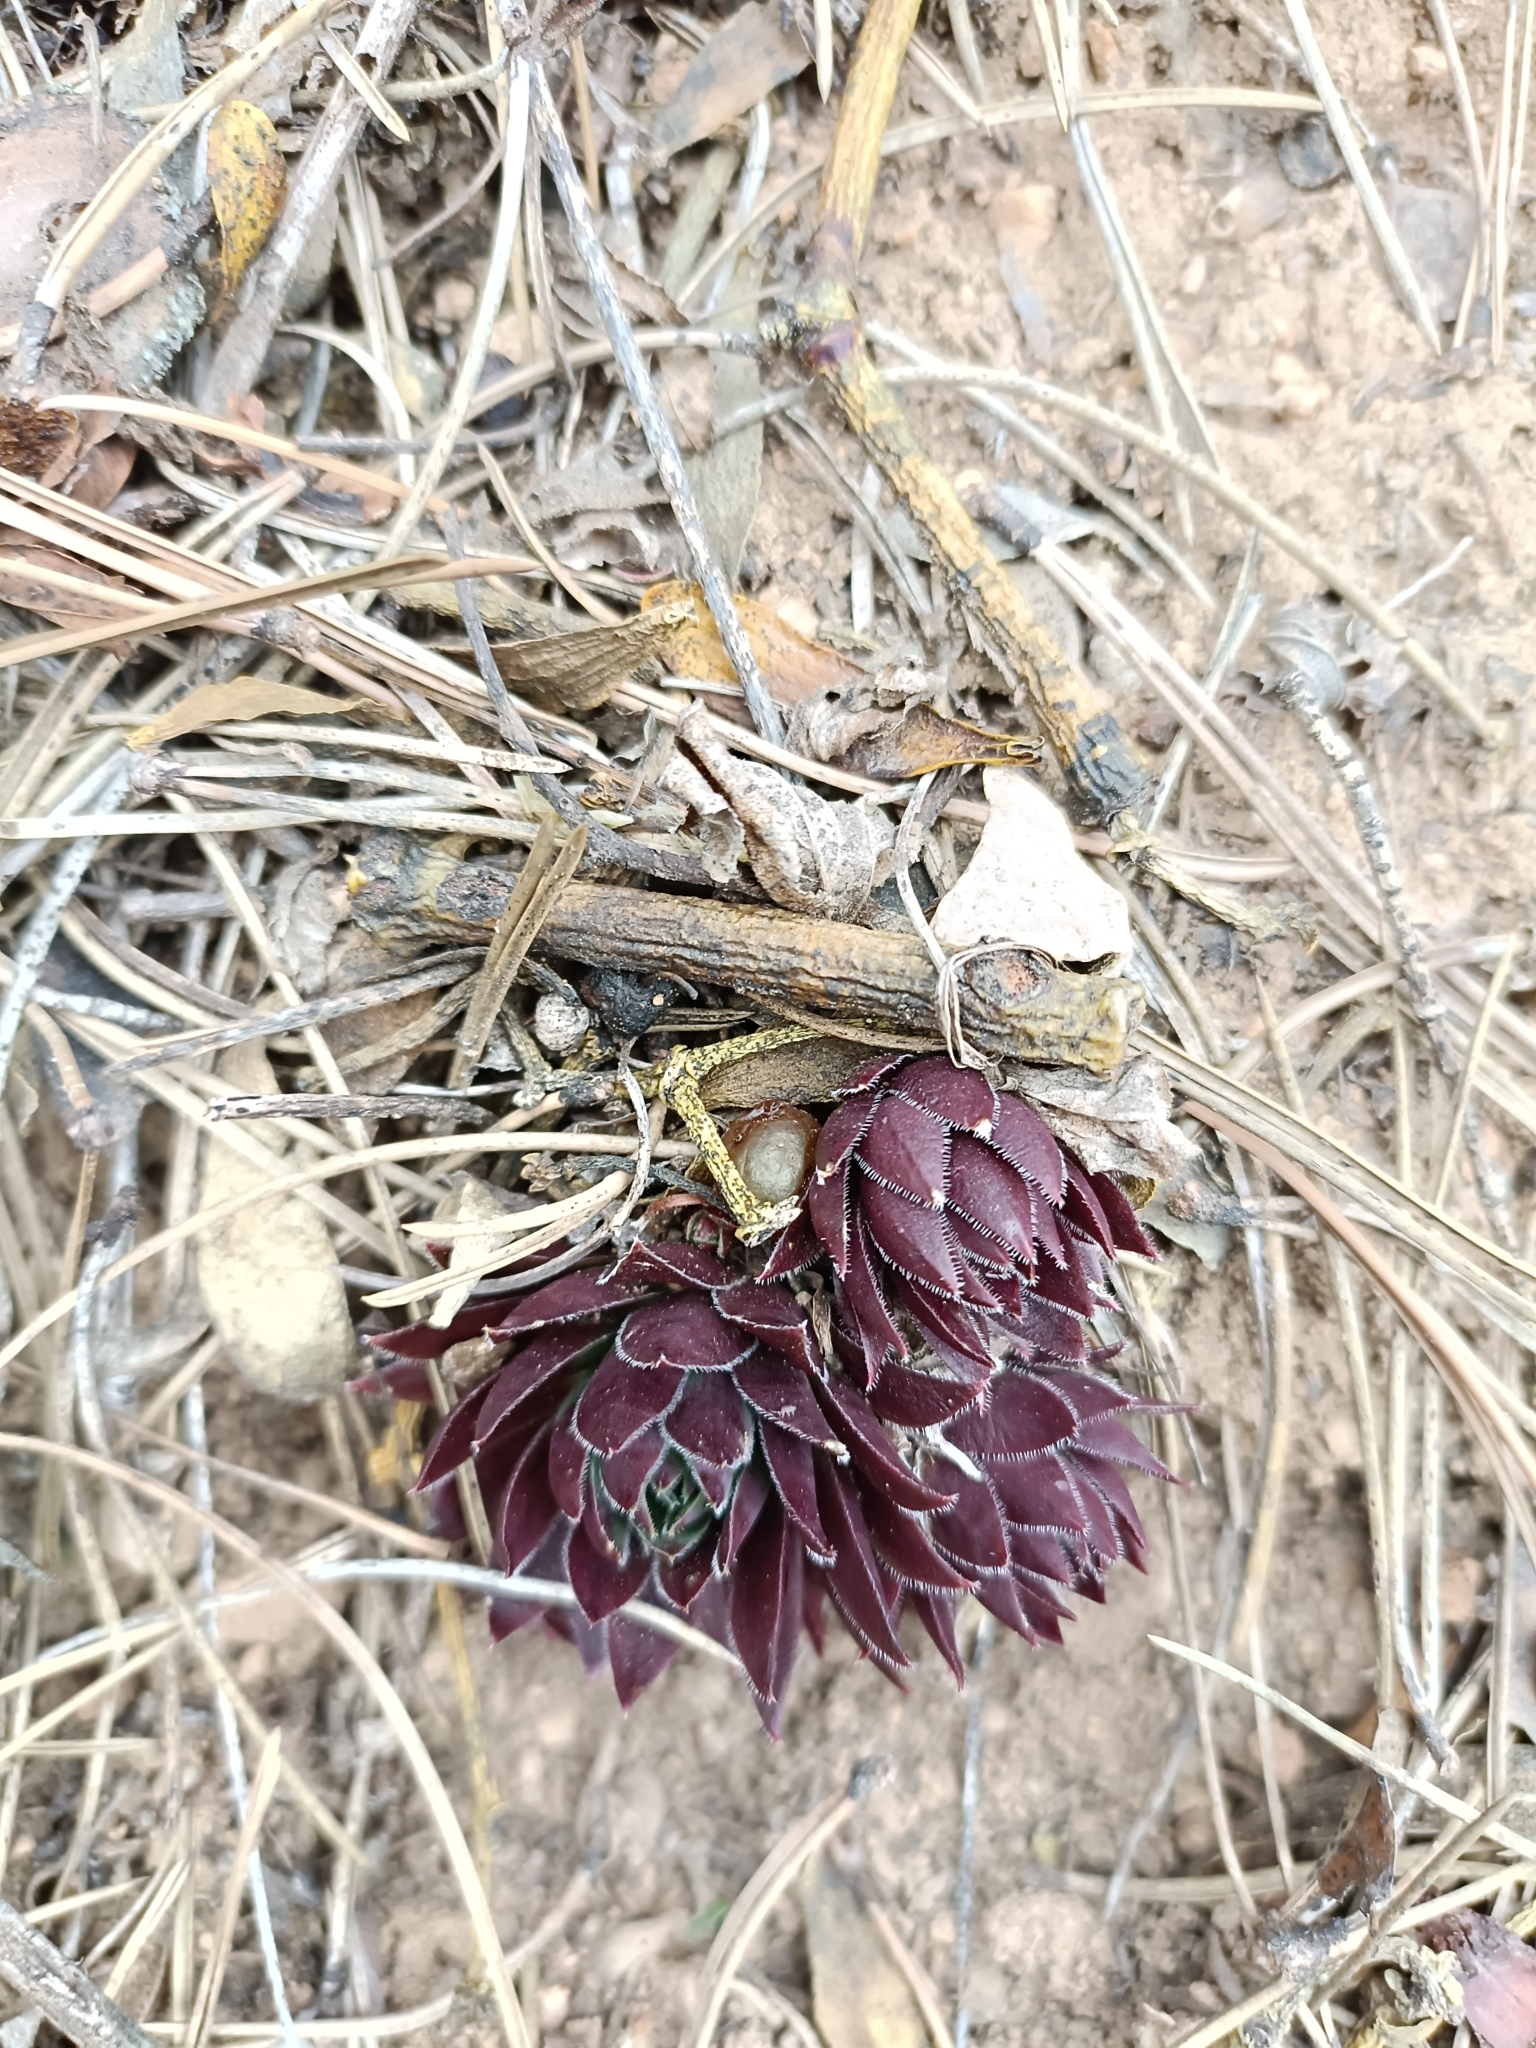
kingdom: Plantae
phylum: Tracheophyta
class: Magnoliopsida
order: Saxifragales
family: Crassulaceae
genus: Sempervivum
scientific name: Sempervivum globiferum
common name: Rolling hen-and-chicks
